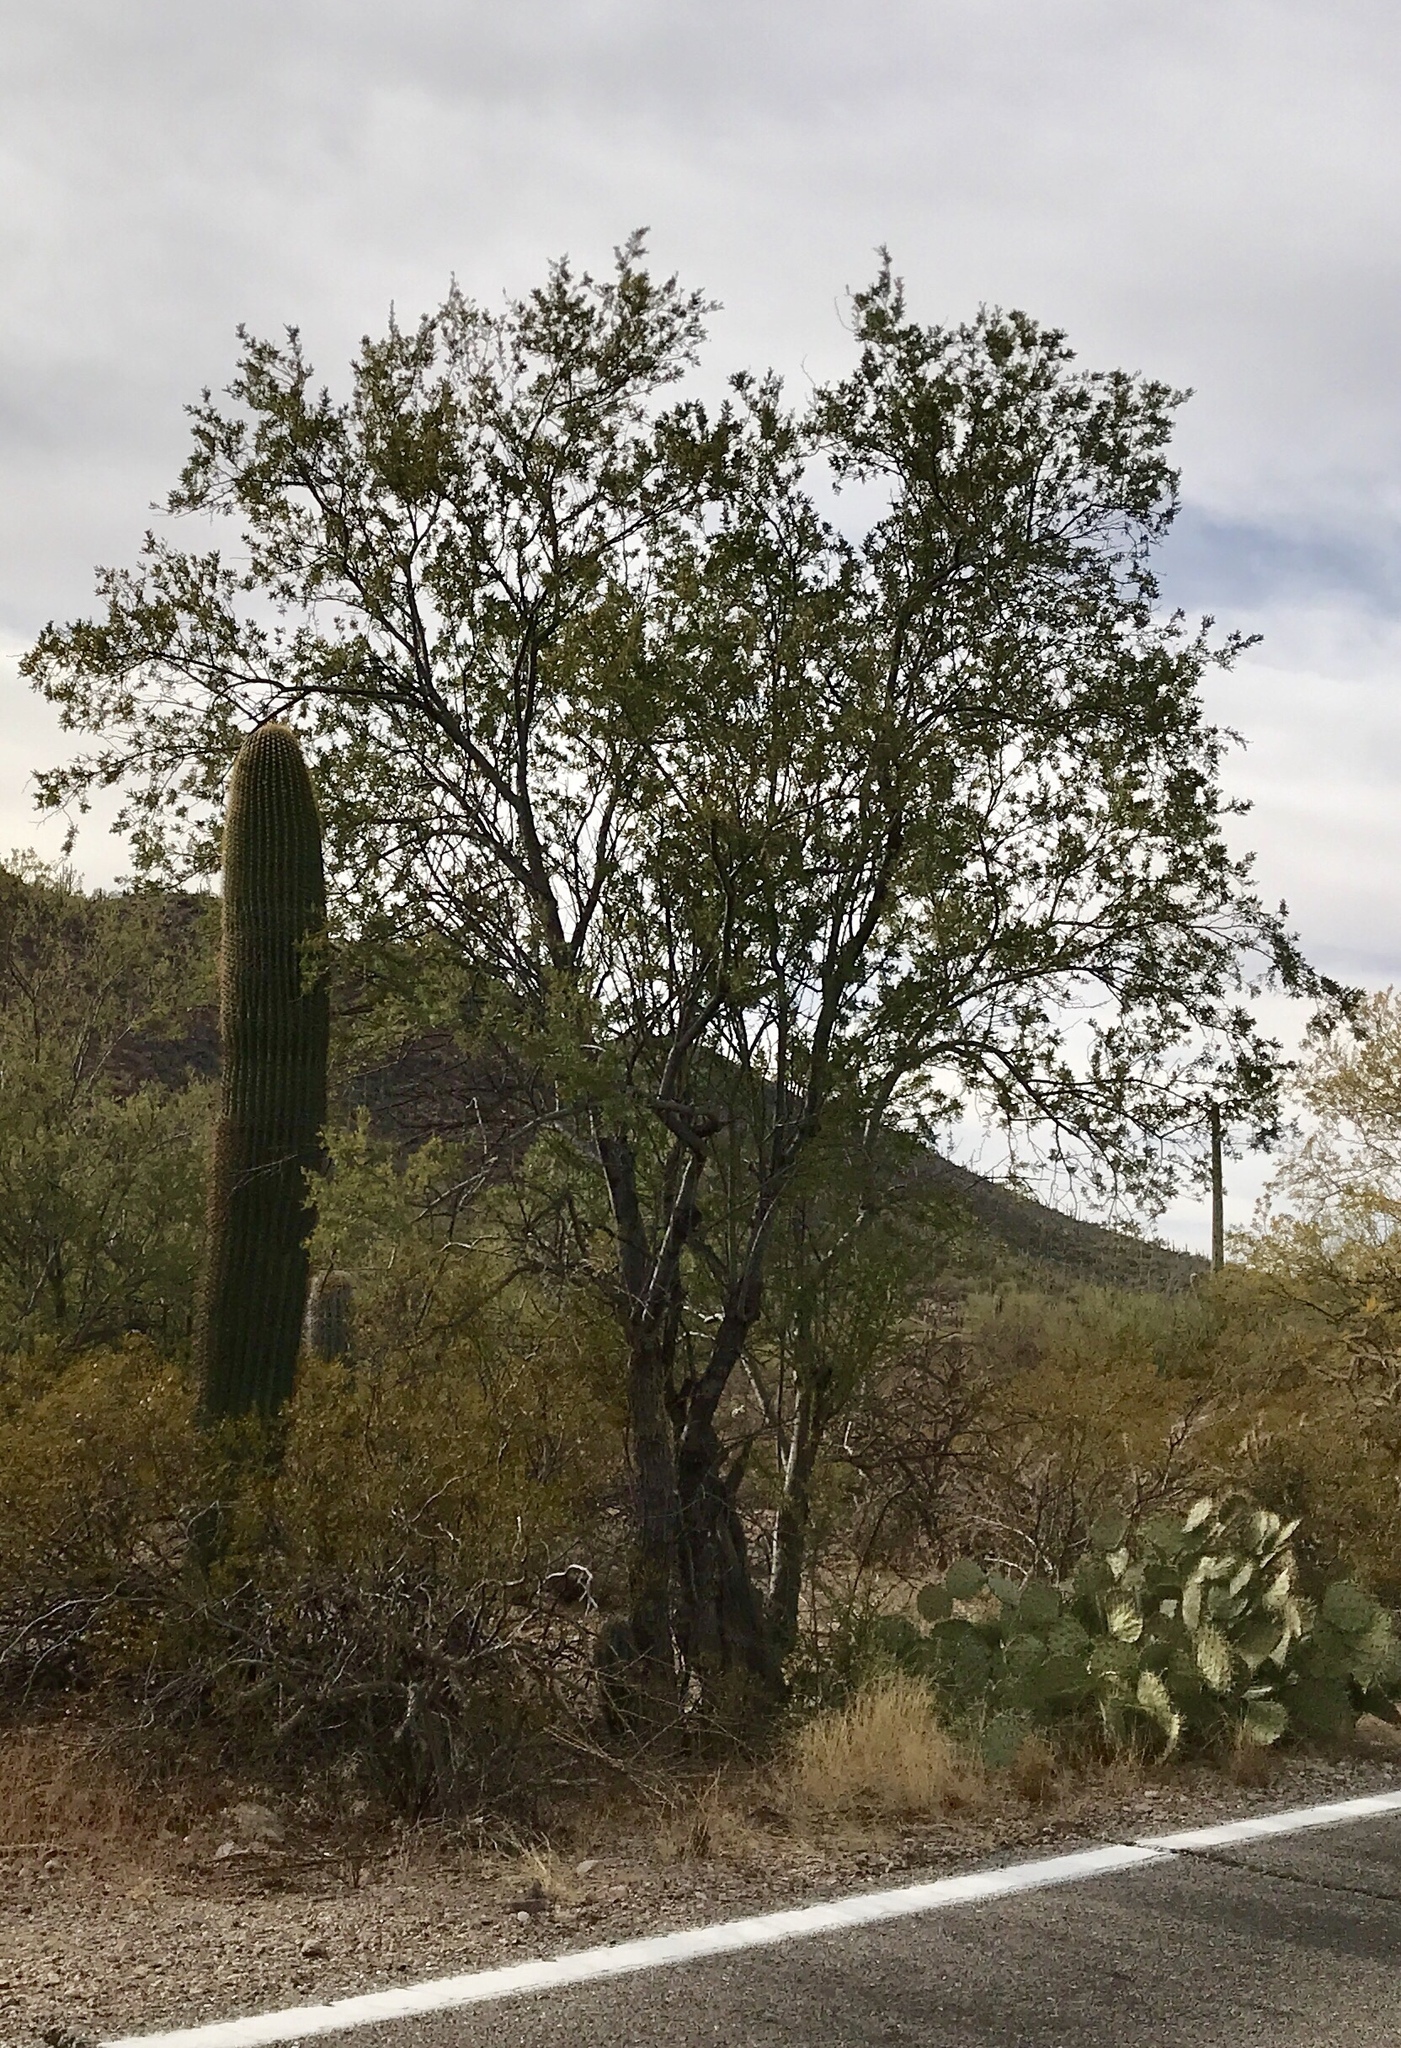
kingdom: Plantae
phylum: Tracheophyta
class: Magnoliopsida
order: Fabales
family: Fabaceae
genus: Olneya
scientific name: Olneya tesota
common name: Desert ironwood
